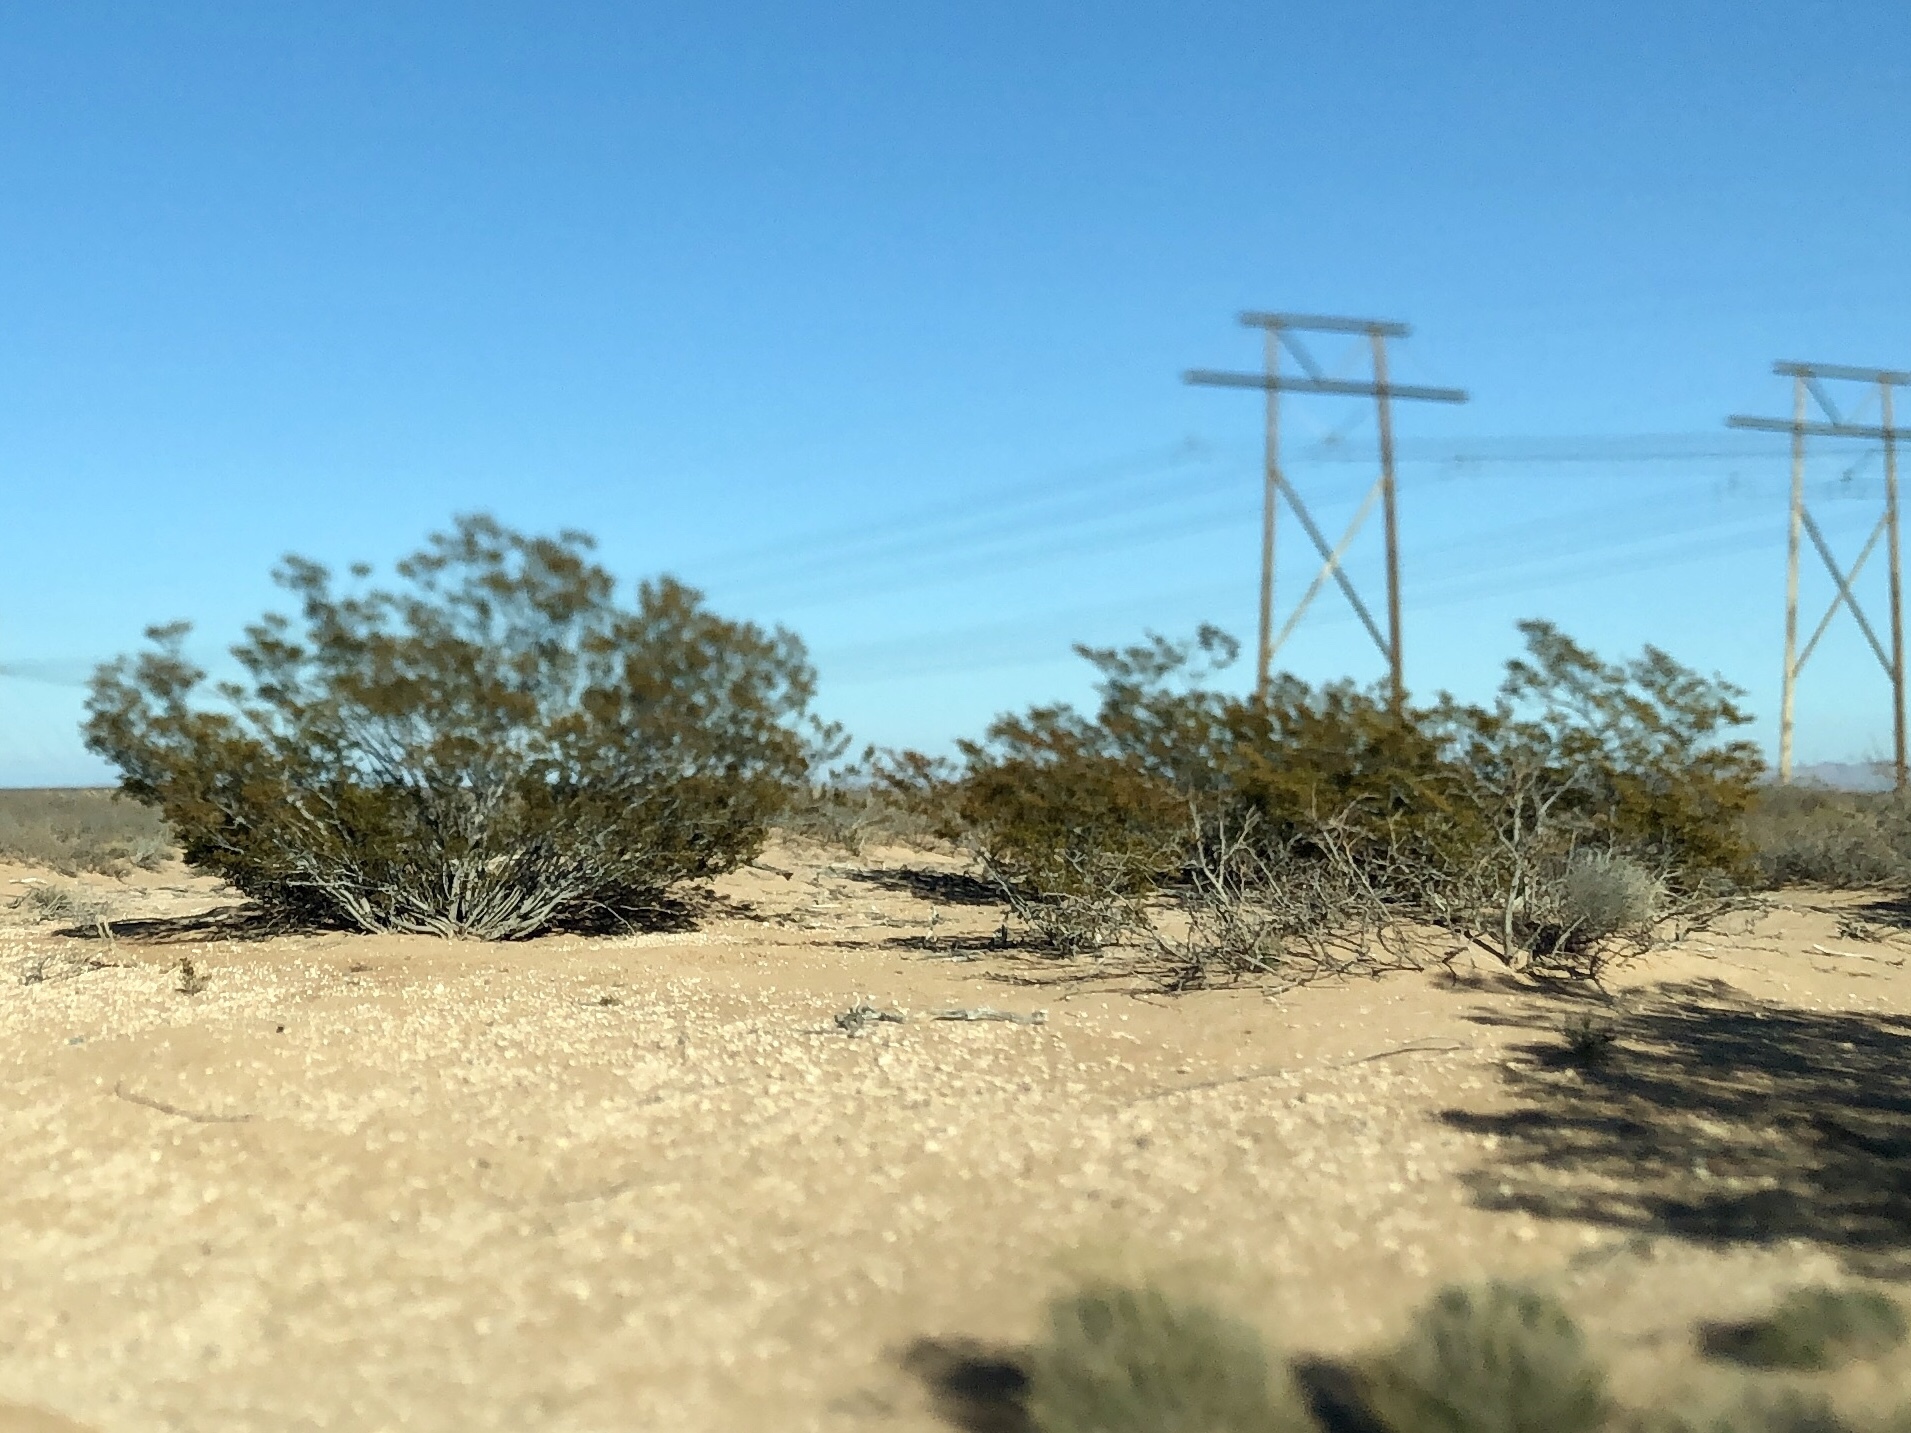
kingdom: Plantae
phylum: Tracheophyta
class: Magnoliopsida
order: Zygophyllales
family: Zygophyllaceae
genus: Larrea
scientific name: Larrea tridentata
